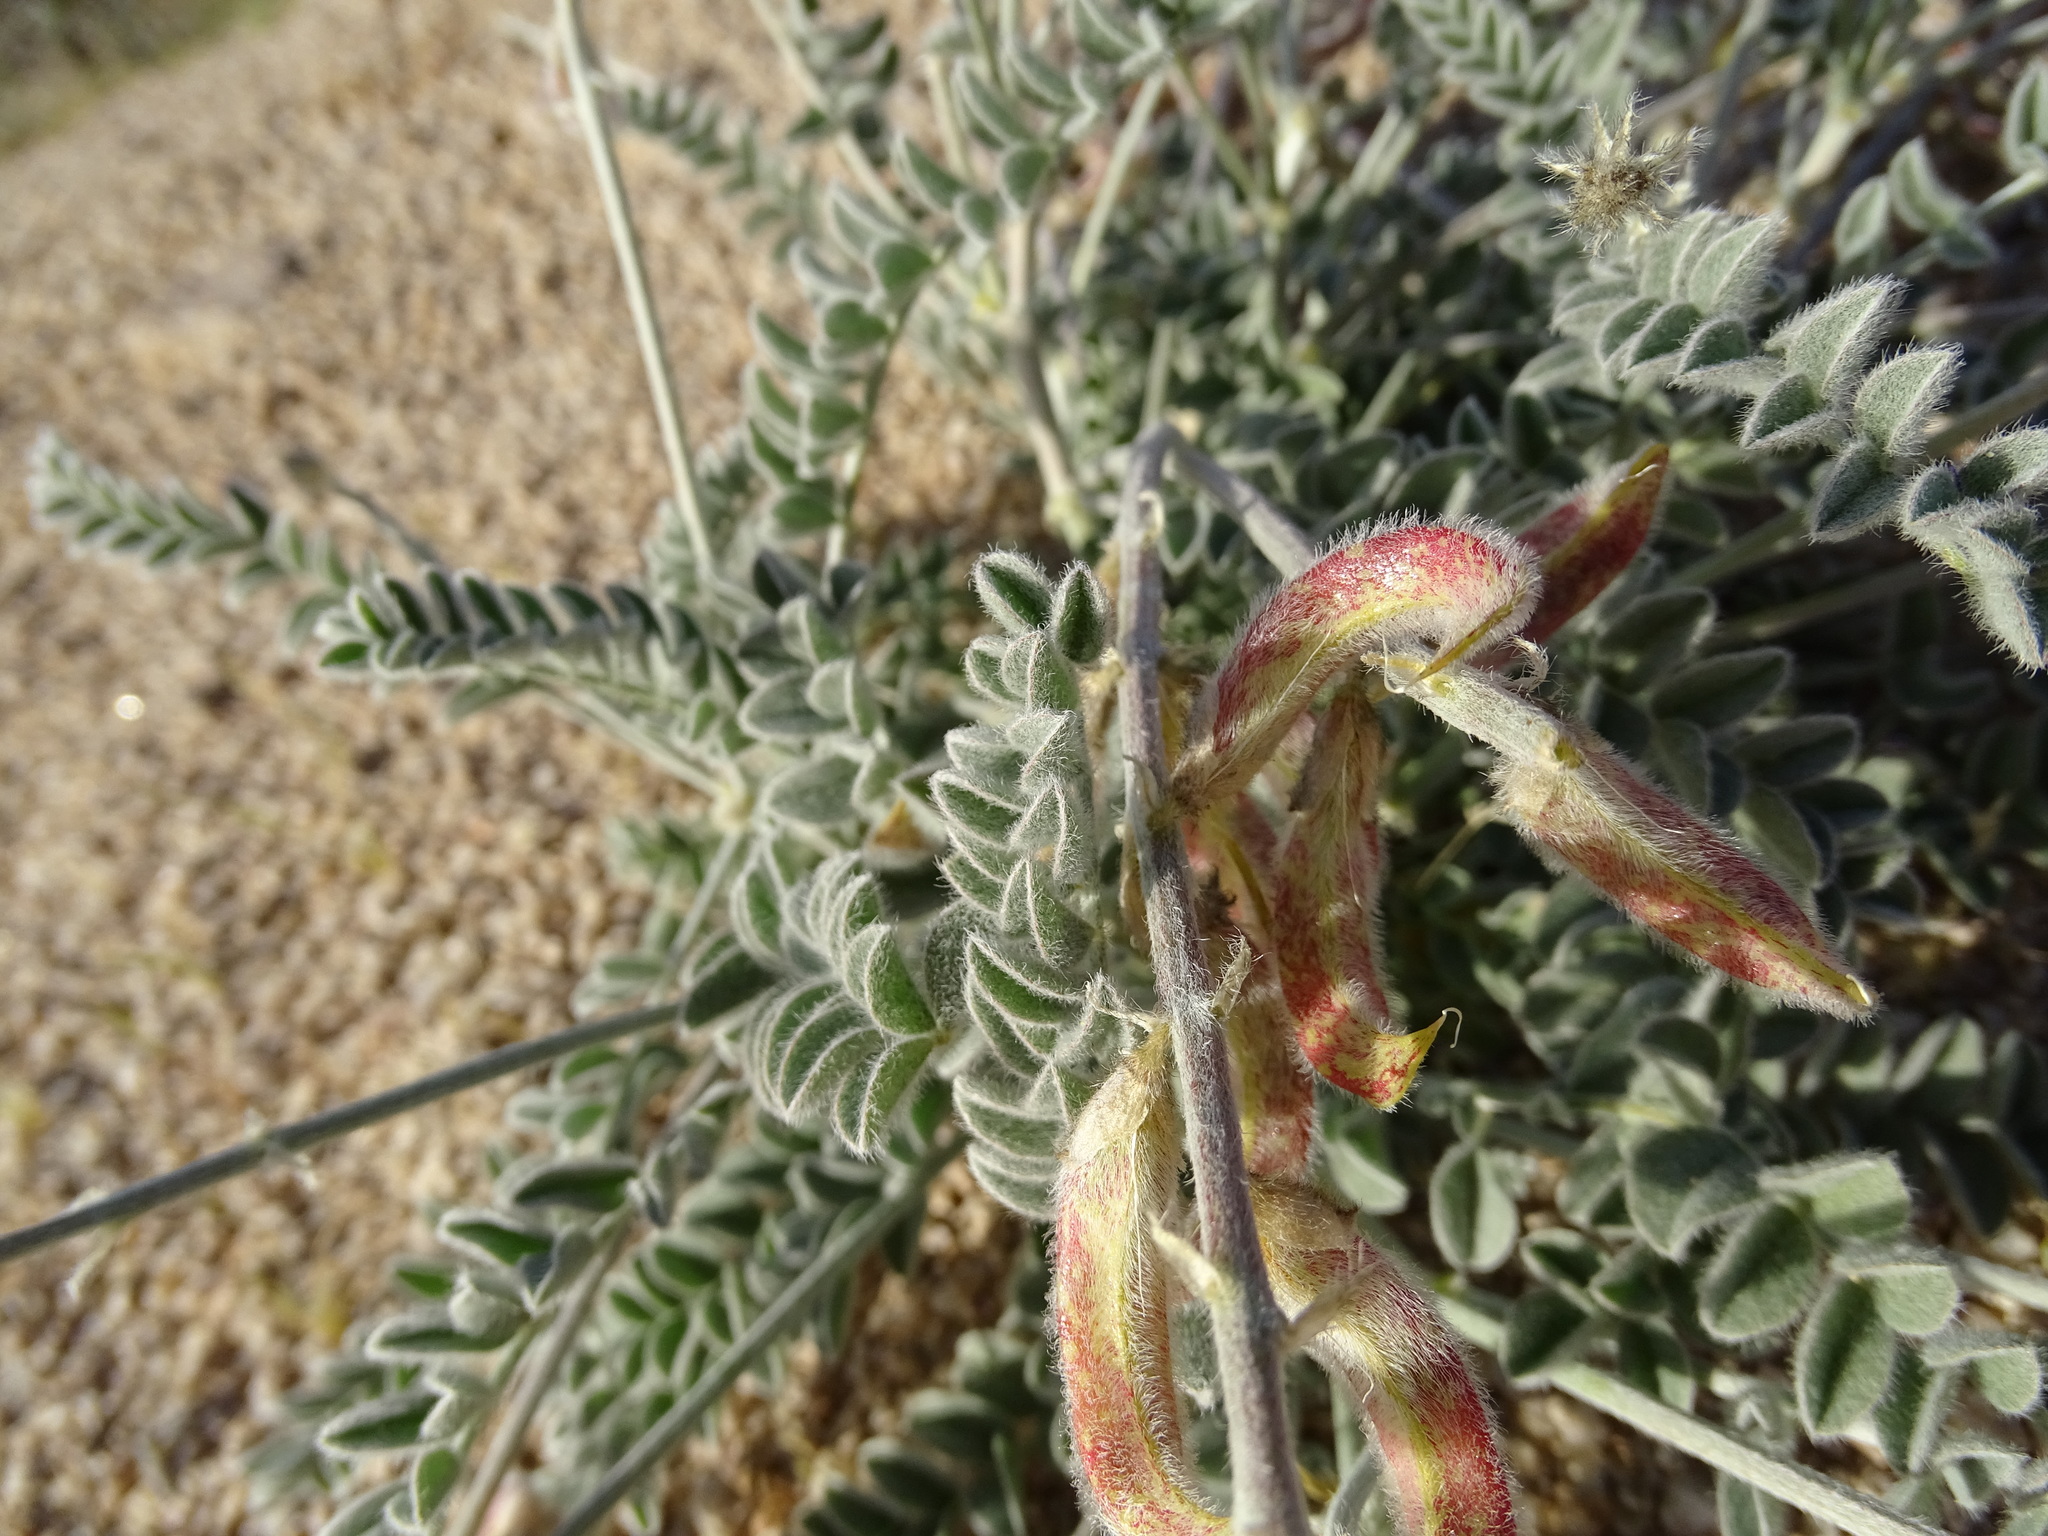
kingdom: Plantae
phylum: Tracheophyta
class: Magnoliopsida
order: Fabales
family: Fabaceae
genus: Astragalus
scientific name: Astragalus layneae
